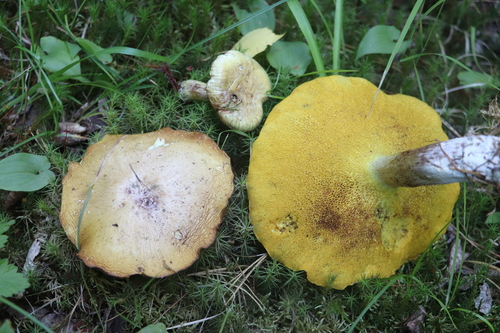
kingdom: Fungi
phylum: Basidiomycota
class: Agaricomycetes
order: Boletales
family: Suillaceae
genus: Suillus
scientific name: Suillus placidus
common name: Slippery white bolete
